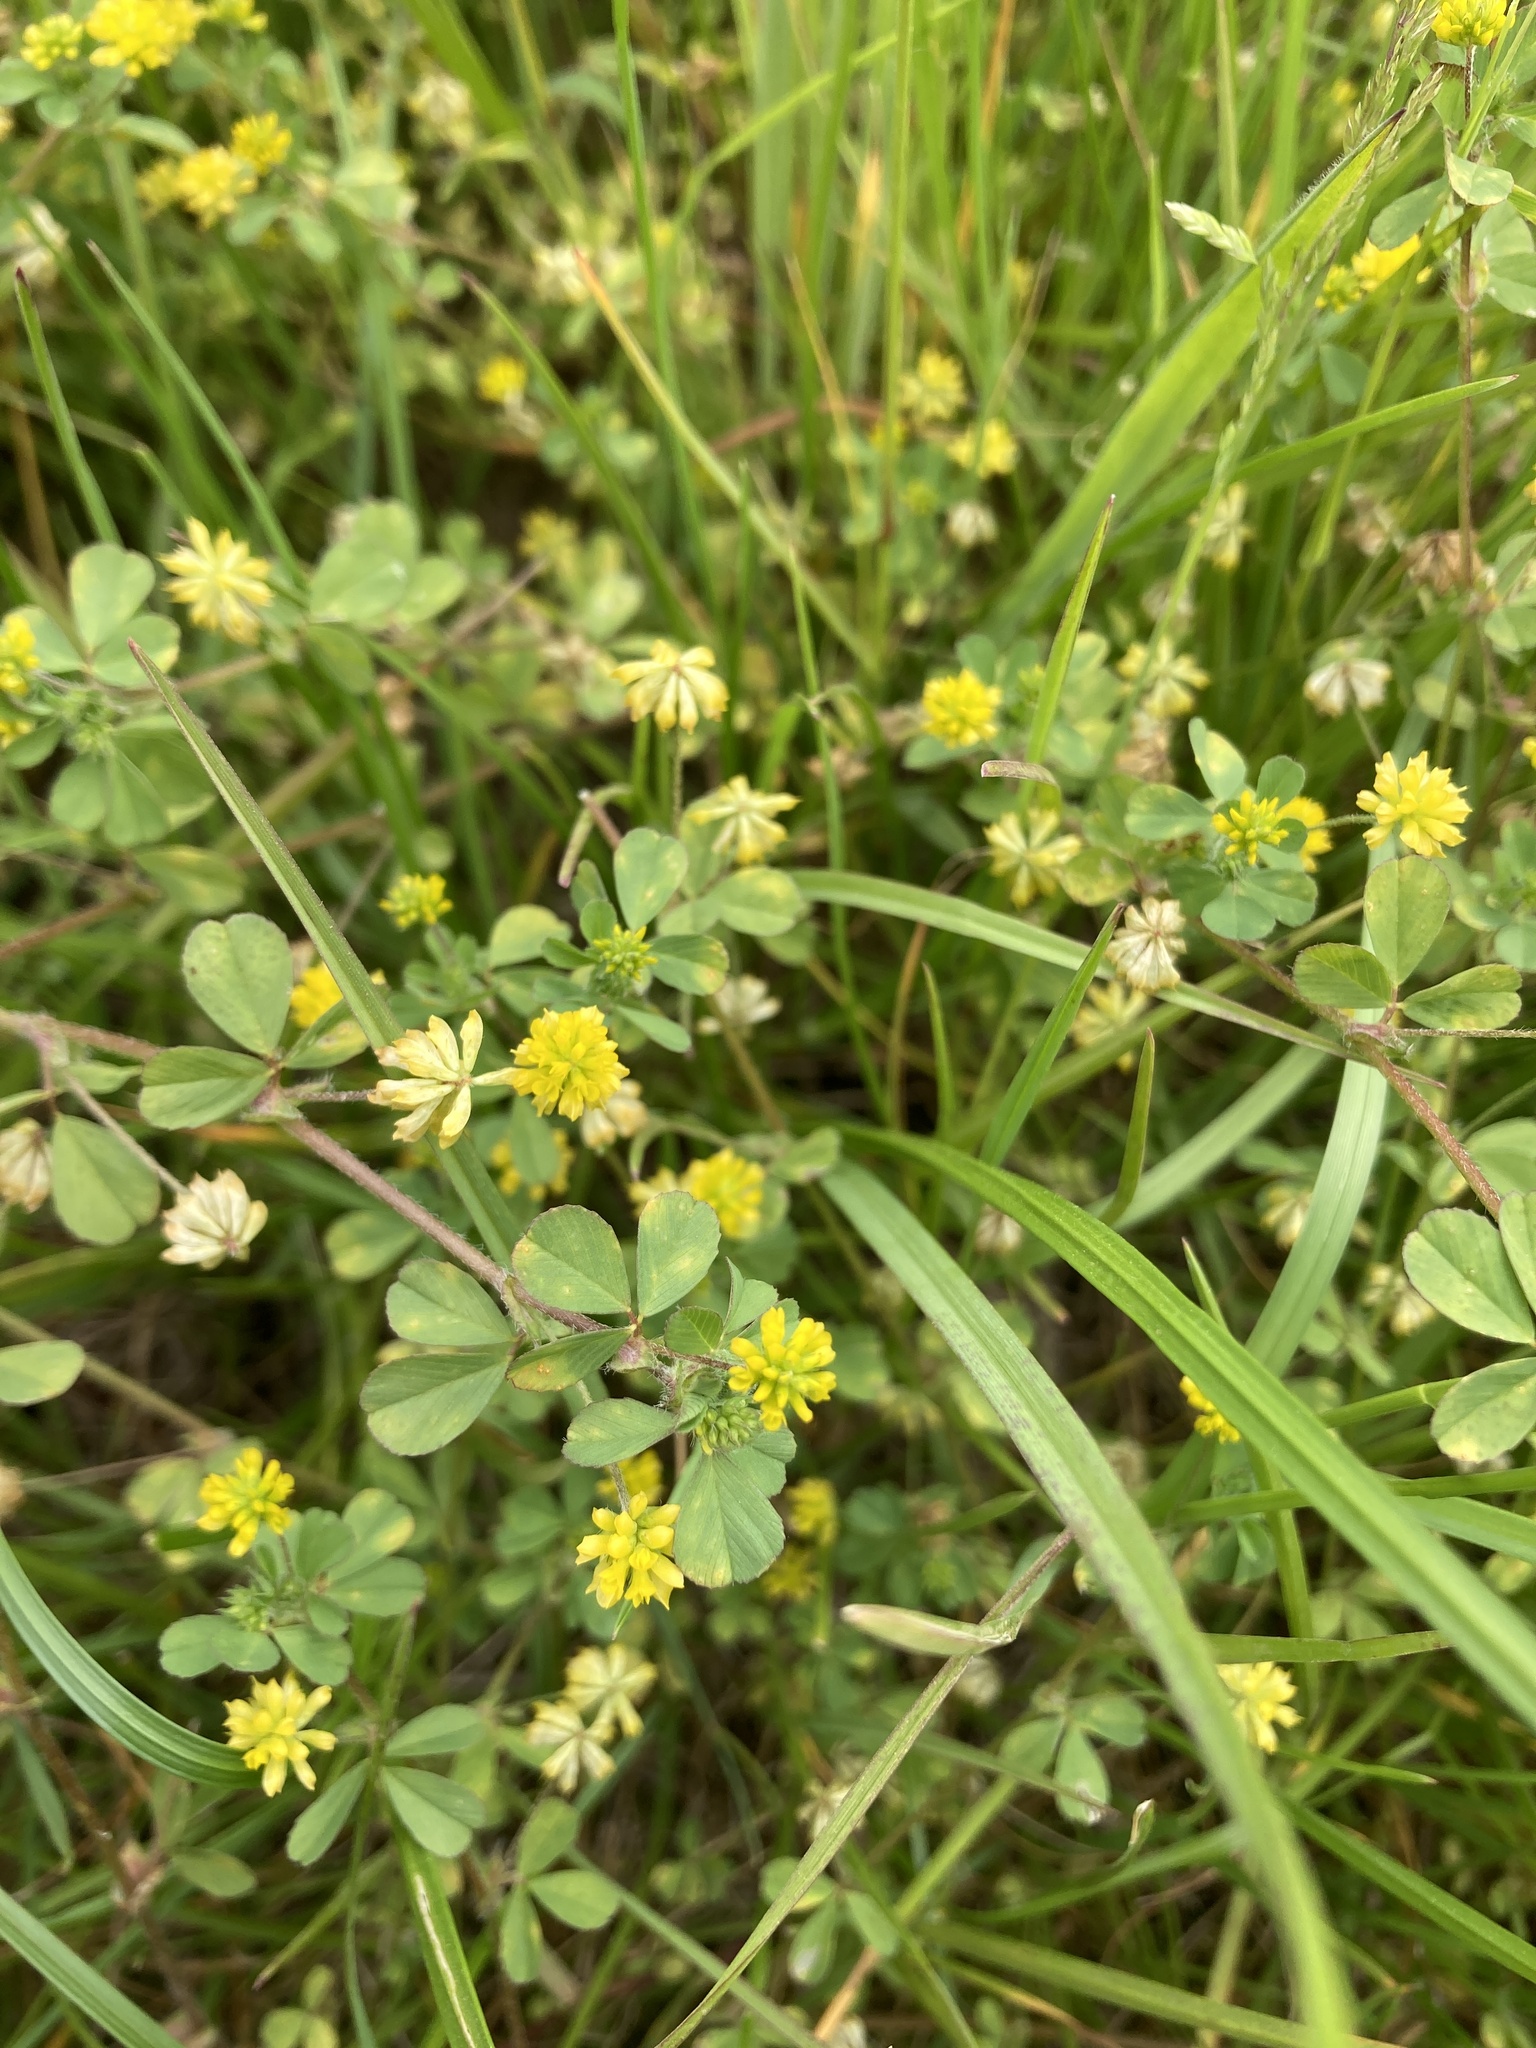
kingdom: Plantae
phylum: Tracheophyta
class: Magnoliopsida
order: Fabales
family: Fabaceae
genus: Trifolium
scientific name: Trifolium dubium
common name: Suckling clover
